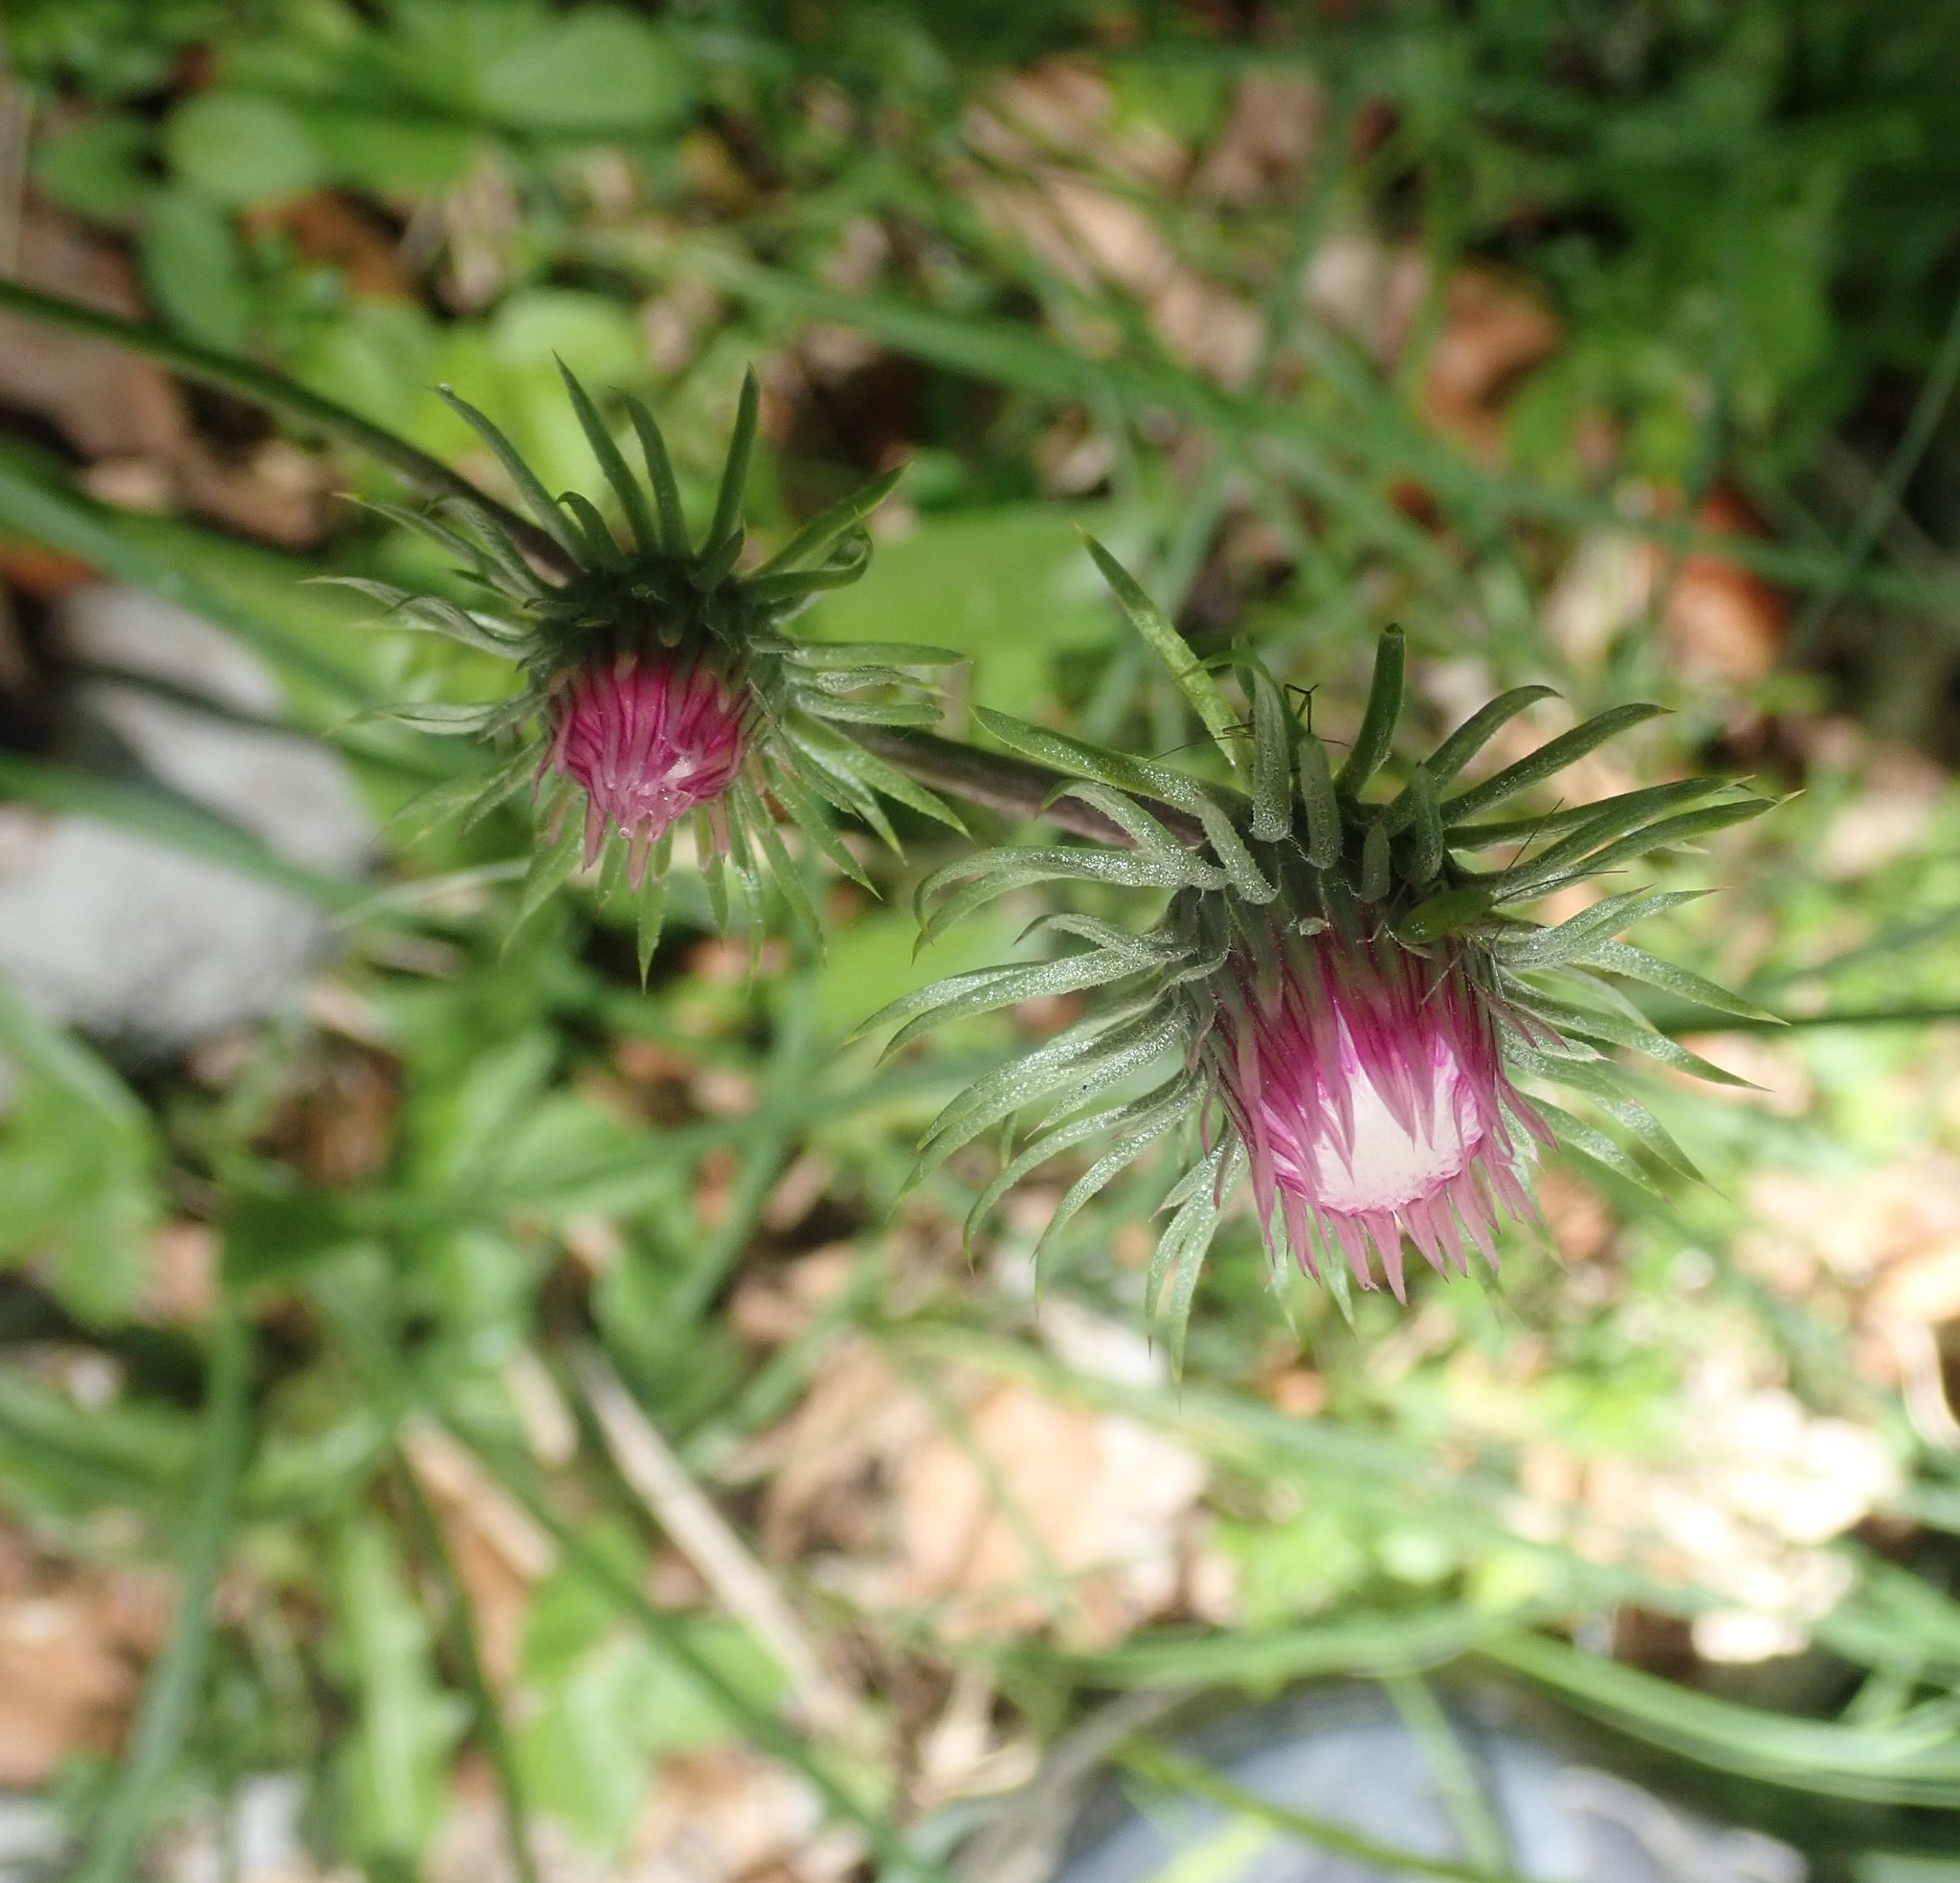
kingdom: Plantae
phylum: Tracheophyta
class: Magnoliopsida
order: Asterales
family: Asteraceae
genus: Carduus
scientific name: Carduus defloratus
